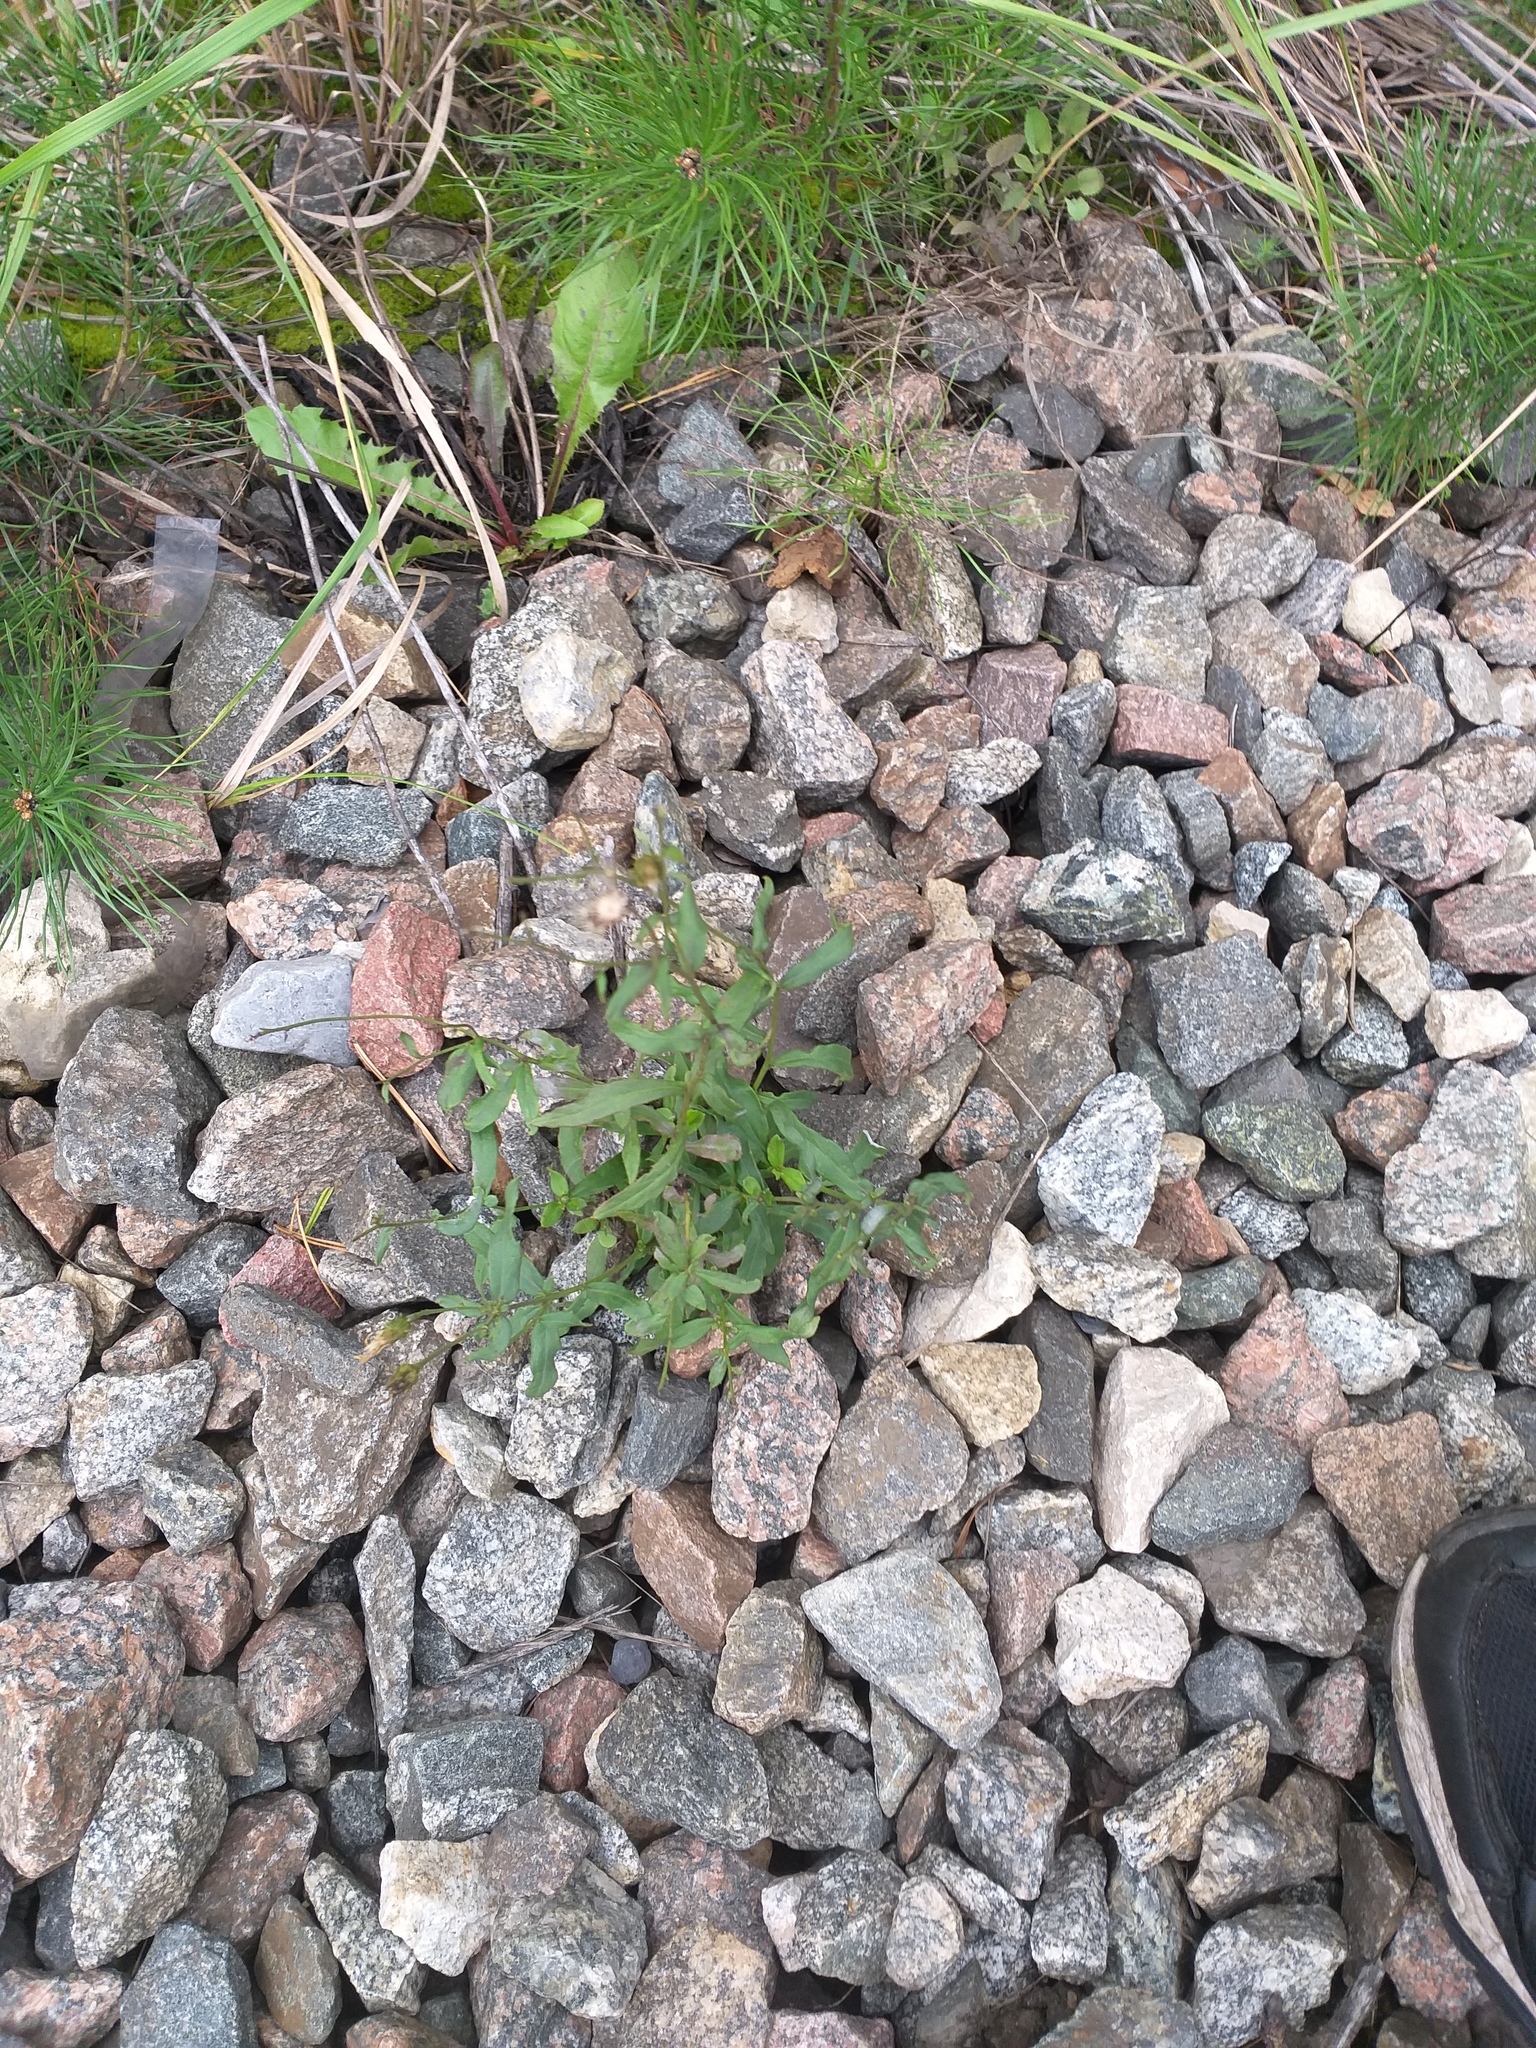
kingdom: Plantae
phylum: Tracheophyta
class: Magnoliopsida
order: Asterales
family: Asteraceae
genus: Hieracium
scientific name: Hieracium umbellatum
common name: Northern hawkweed
